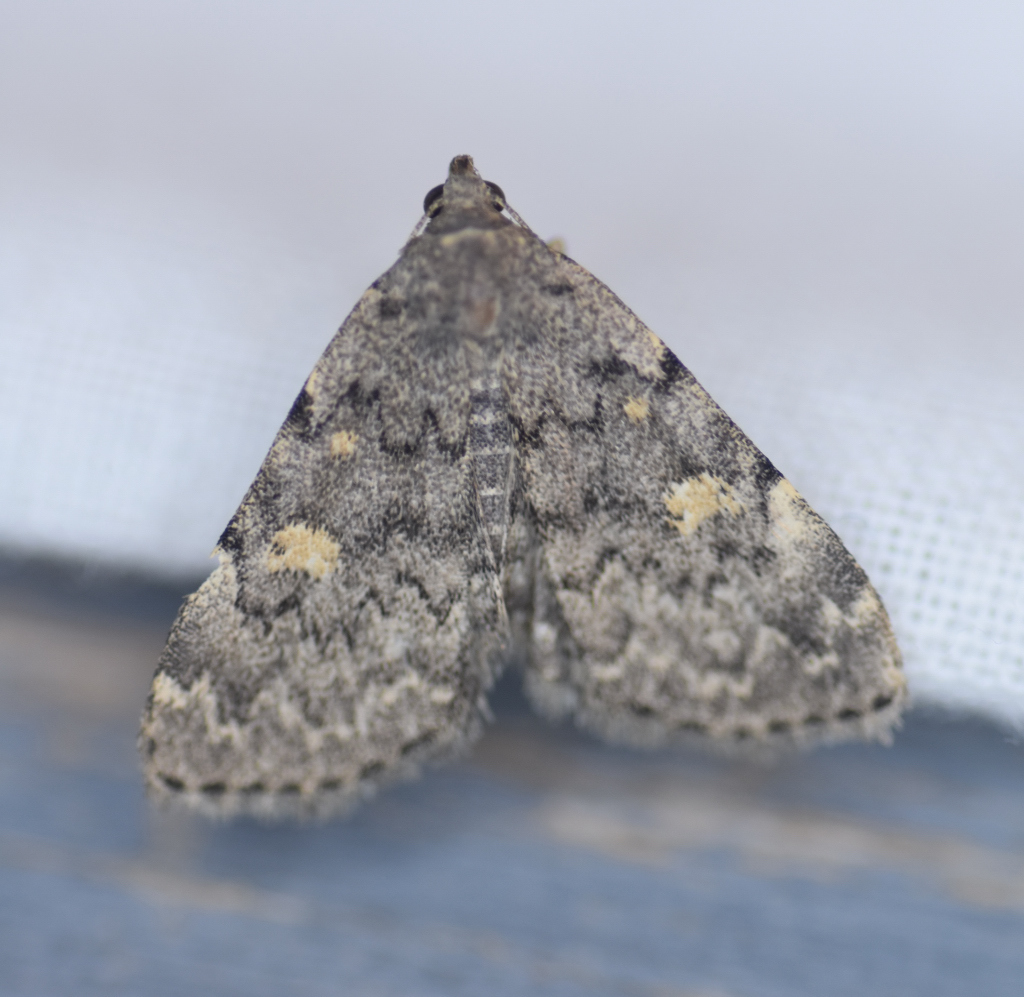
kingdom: Animalia
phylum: Arthropoda
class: Insecta
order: Lepidoptera
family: Erebidae
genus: Idia
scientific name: Idia aemula
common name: Common idia moth
